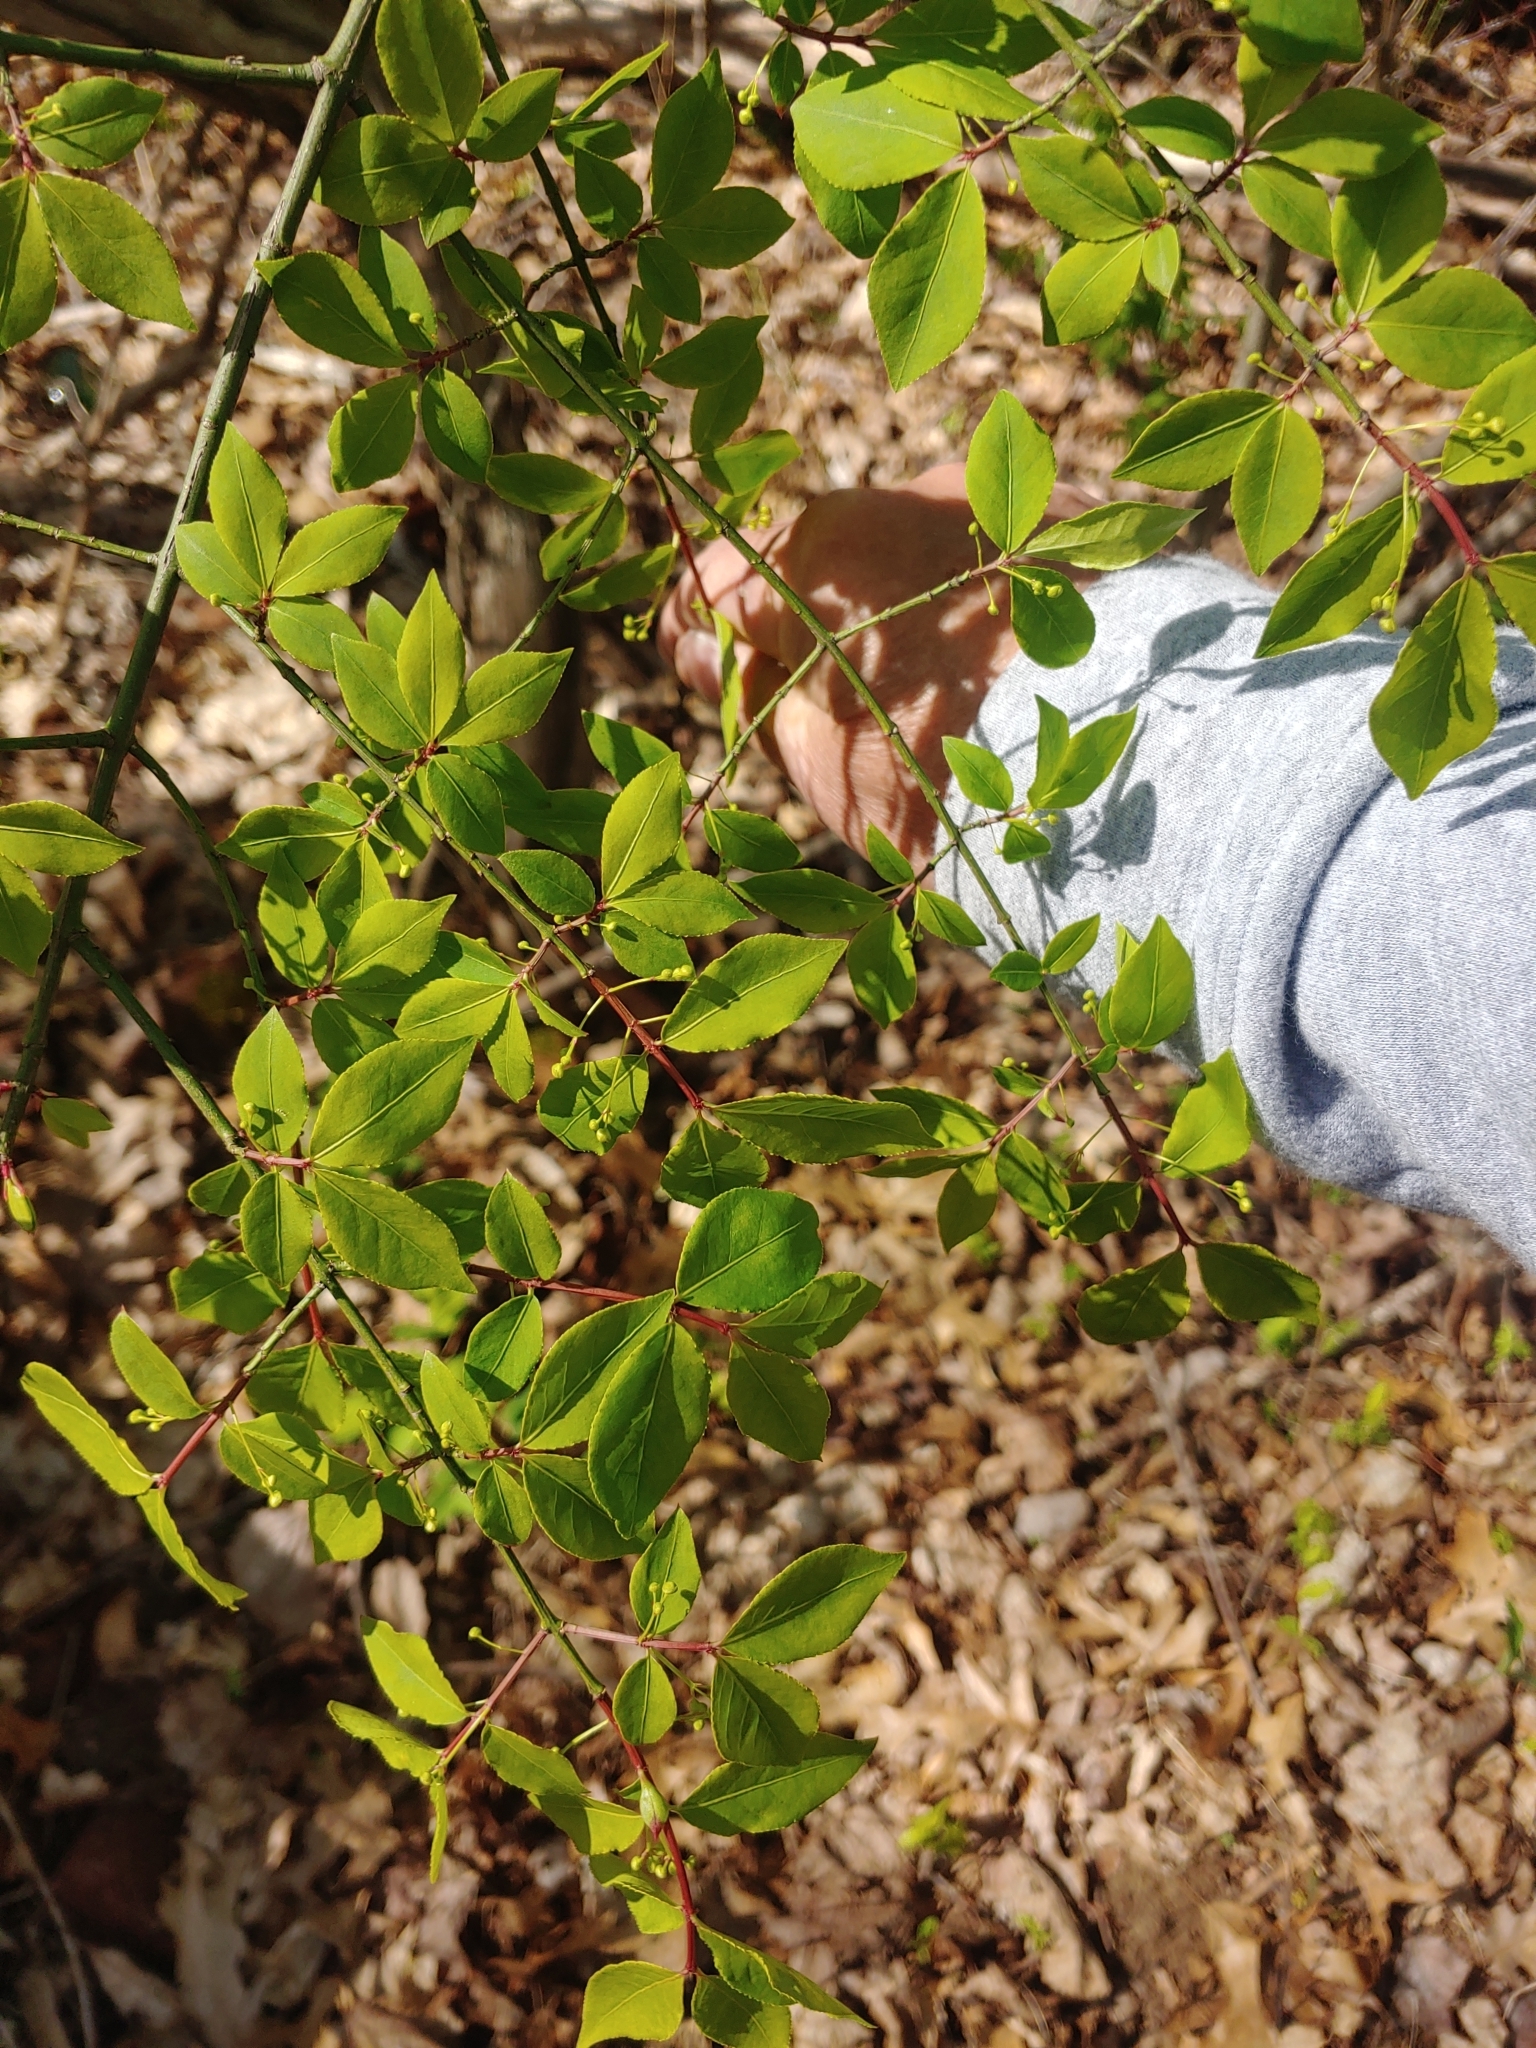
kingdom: Plantae
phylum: Tracheophyta
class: Magnoliopsida
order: Celastrales
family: Celastraceae
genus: Euonymus
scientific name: Euonymus alatus
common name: Winged euonymus
